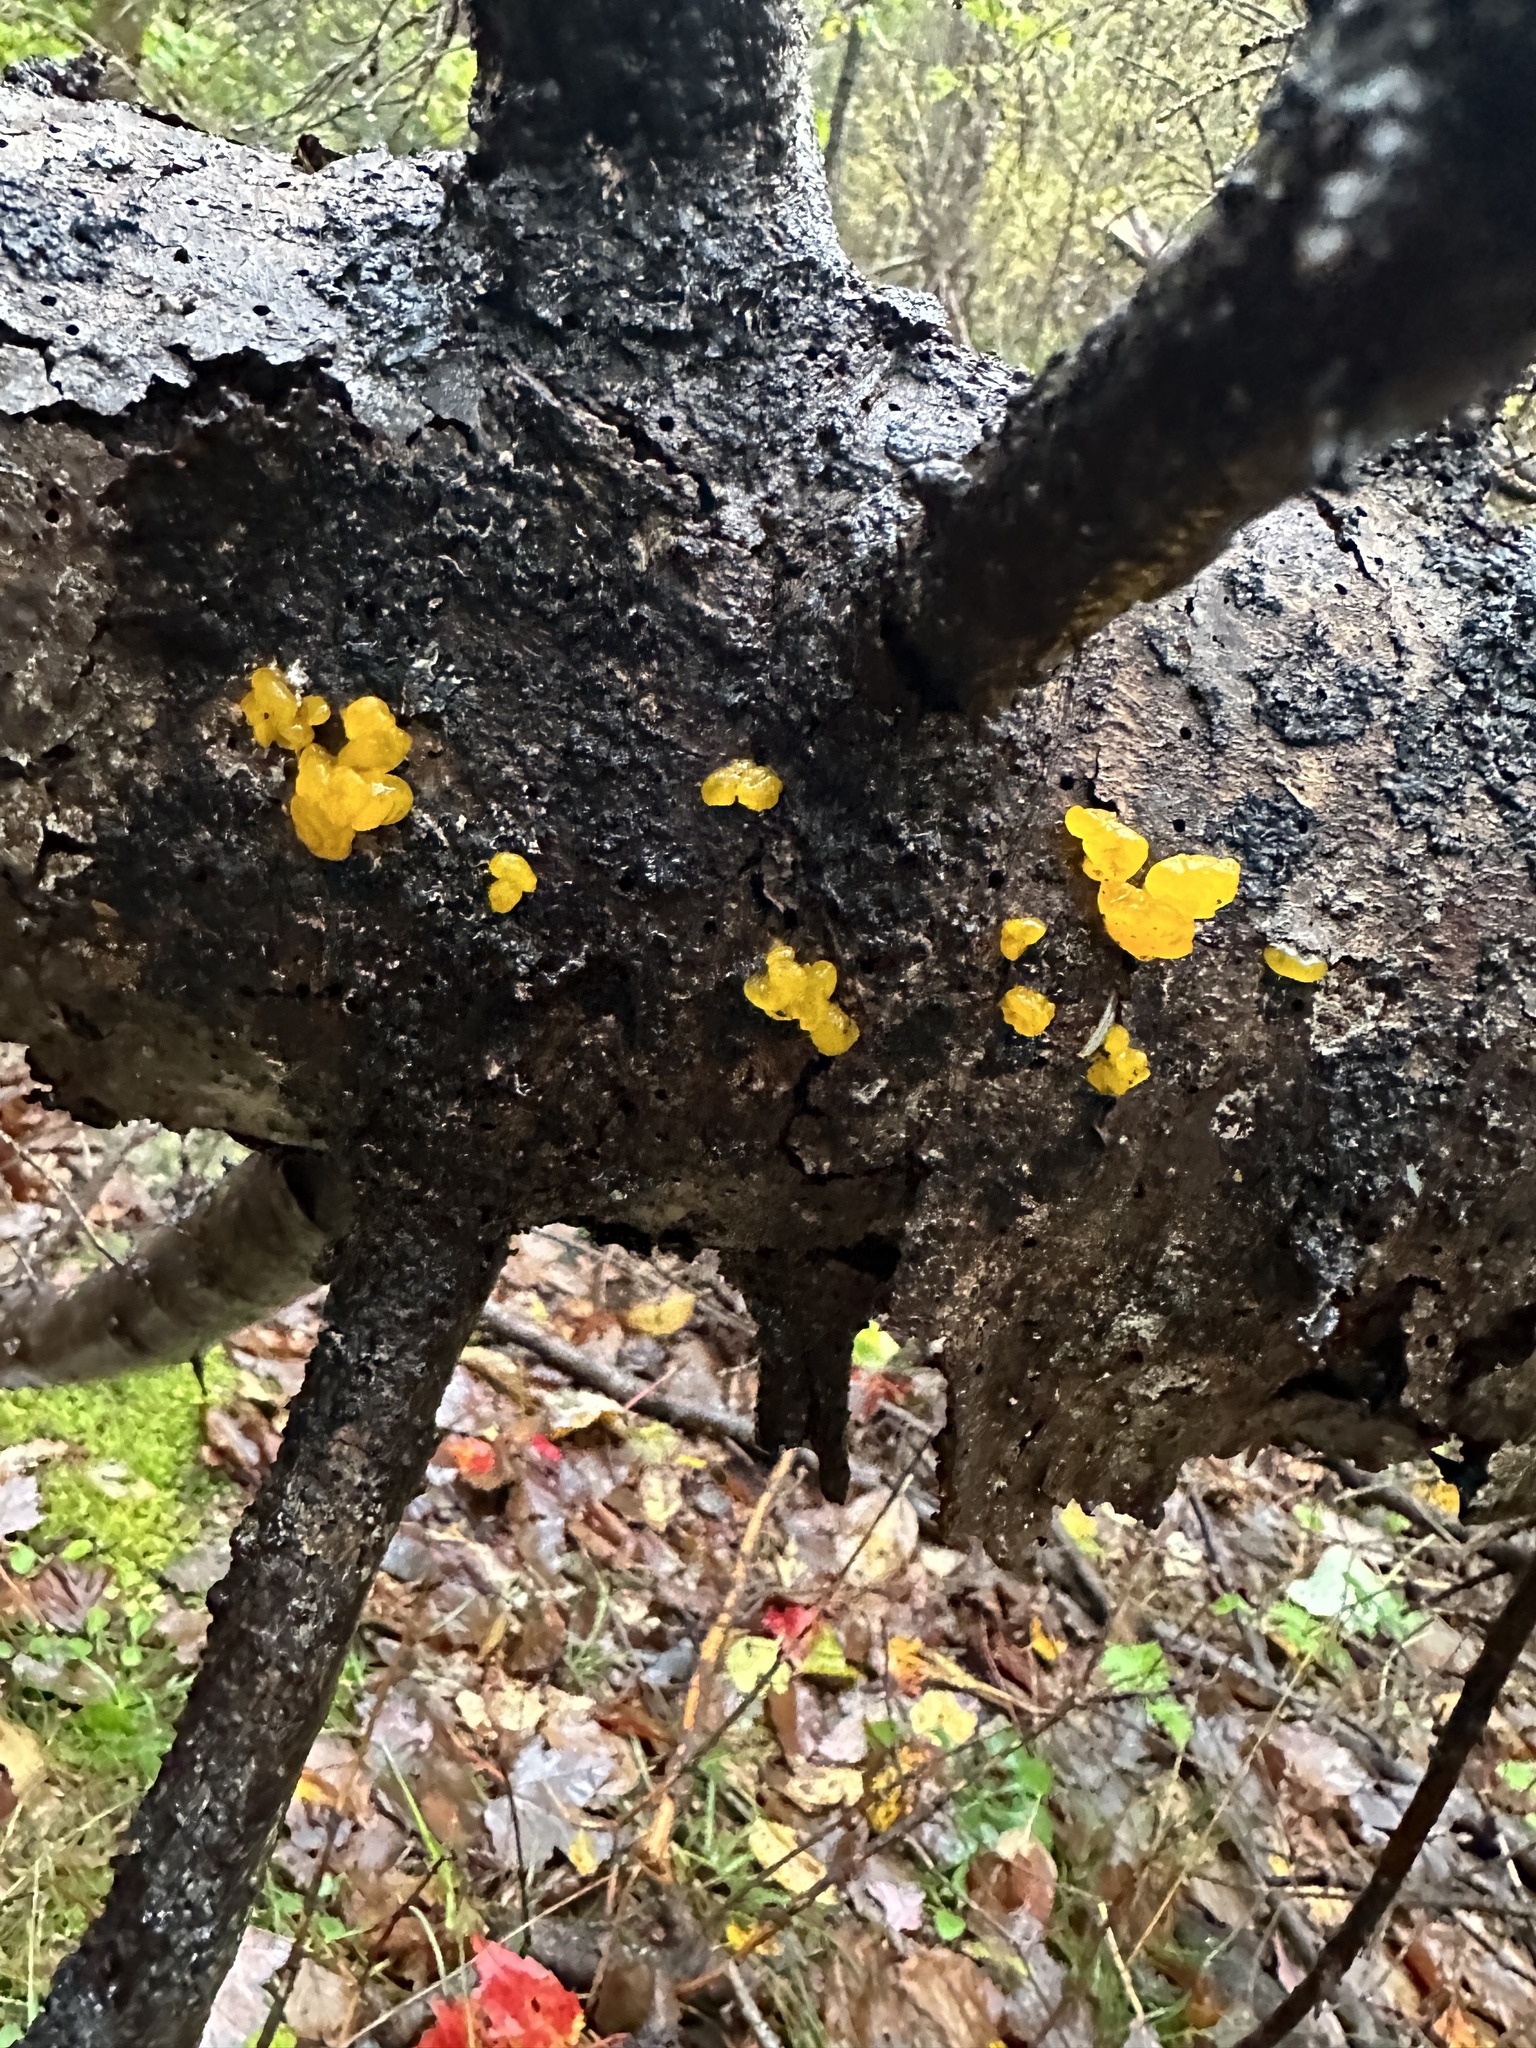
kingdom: Fungi
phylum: Basidiomycota
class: Dacrymycetes
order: Dacrymycetales
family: Dacrymycetaceae
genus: Dacrymyces
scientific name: Dacrymyces chrysospermus
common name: Orange jelly spot
